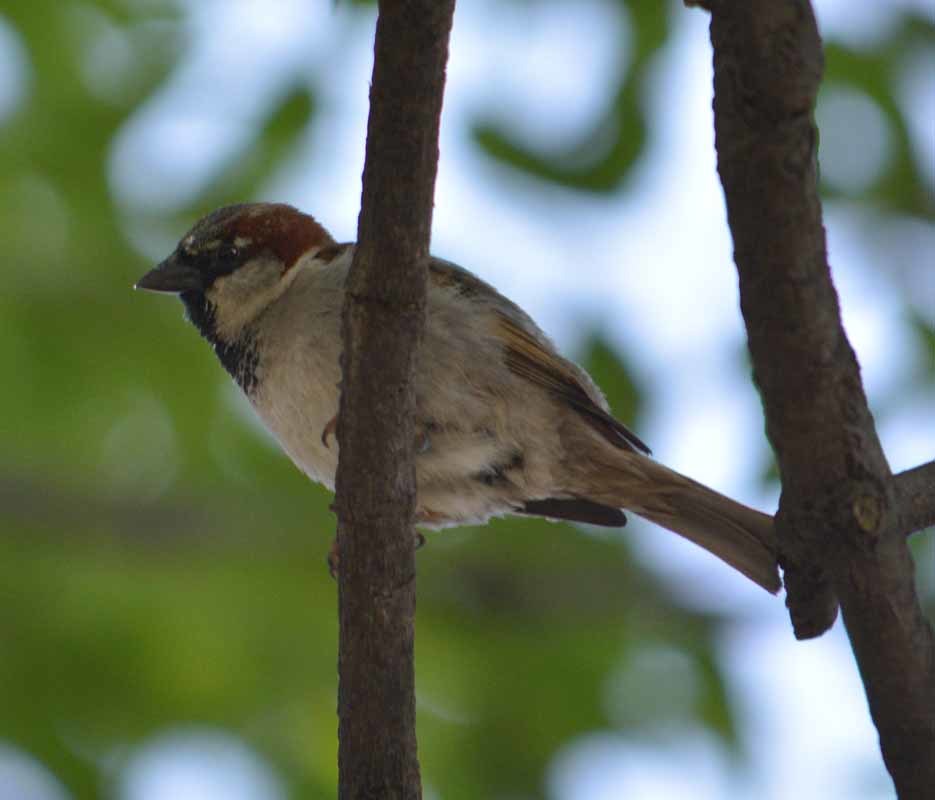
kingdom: Animalia
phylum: Chordata
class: Aves
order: Passeriformes
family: Passeridae
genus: Passer
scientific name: Passer domesticus
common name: House sparrow
